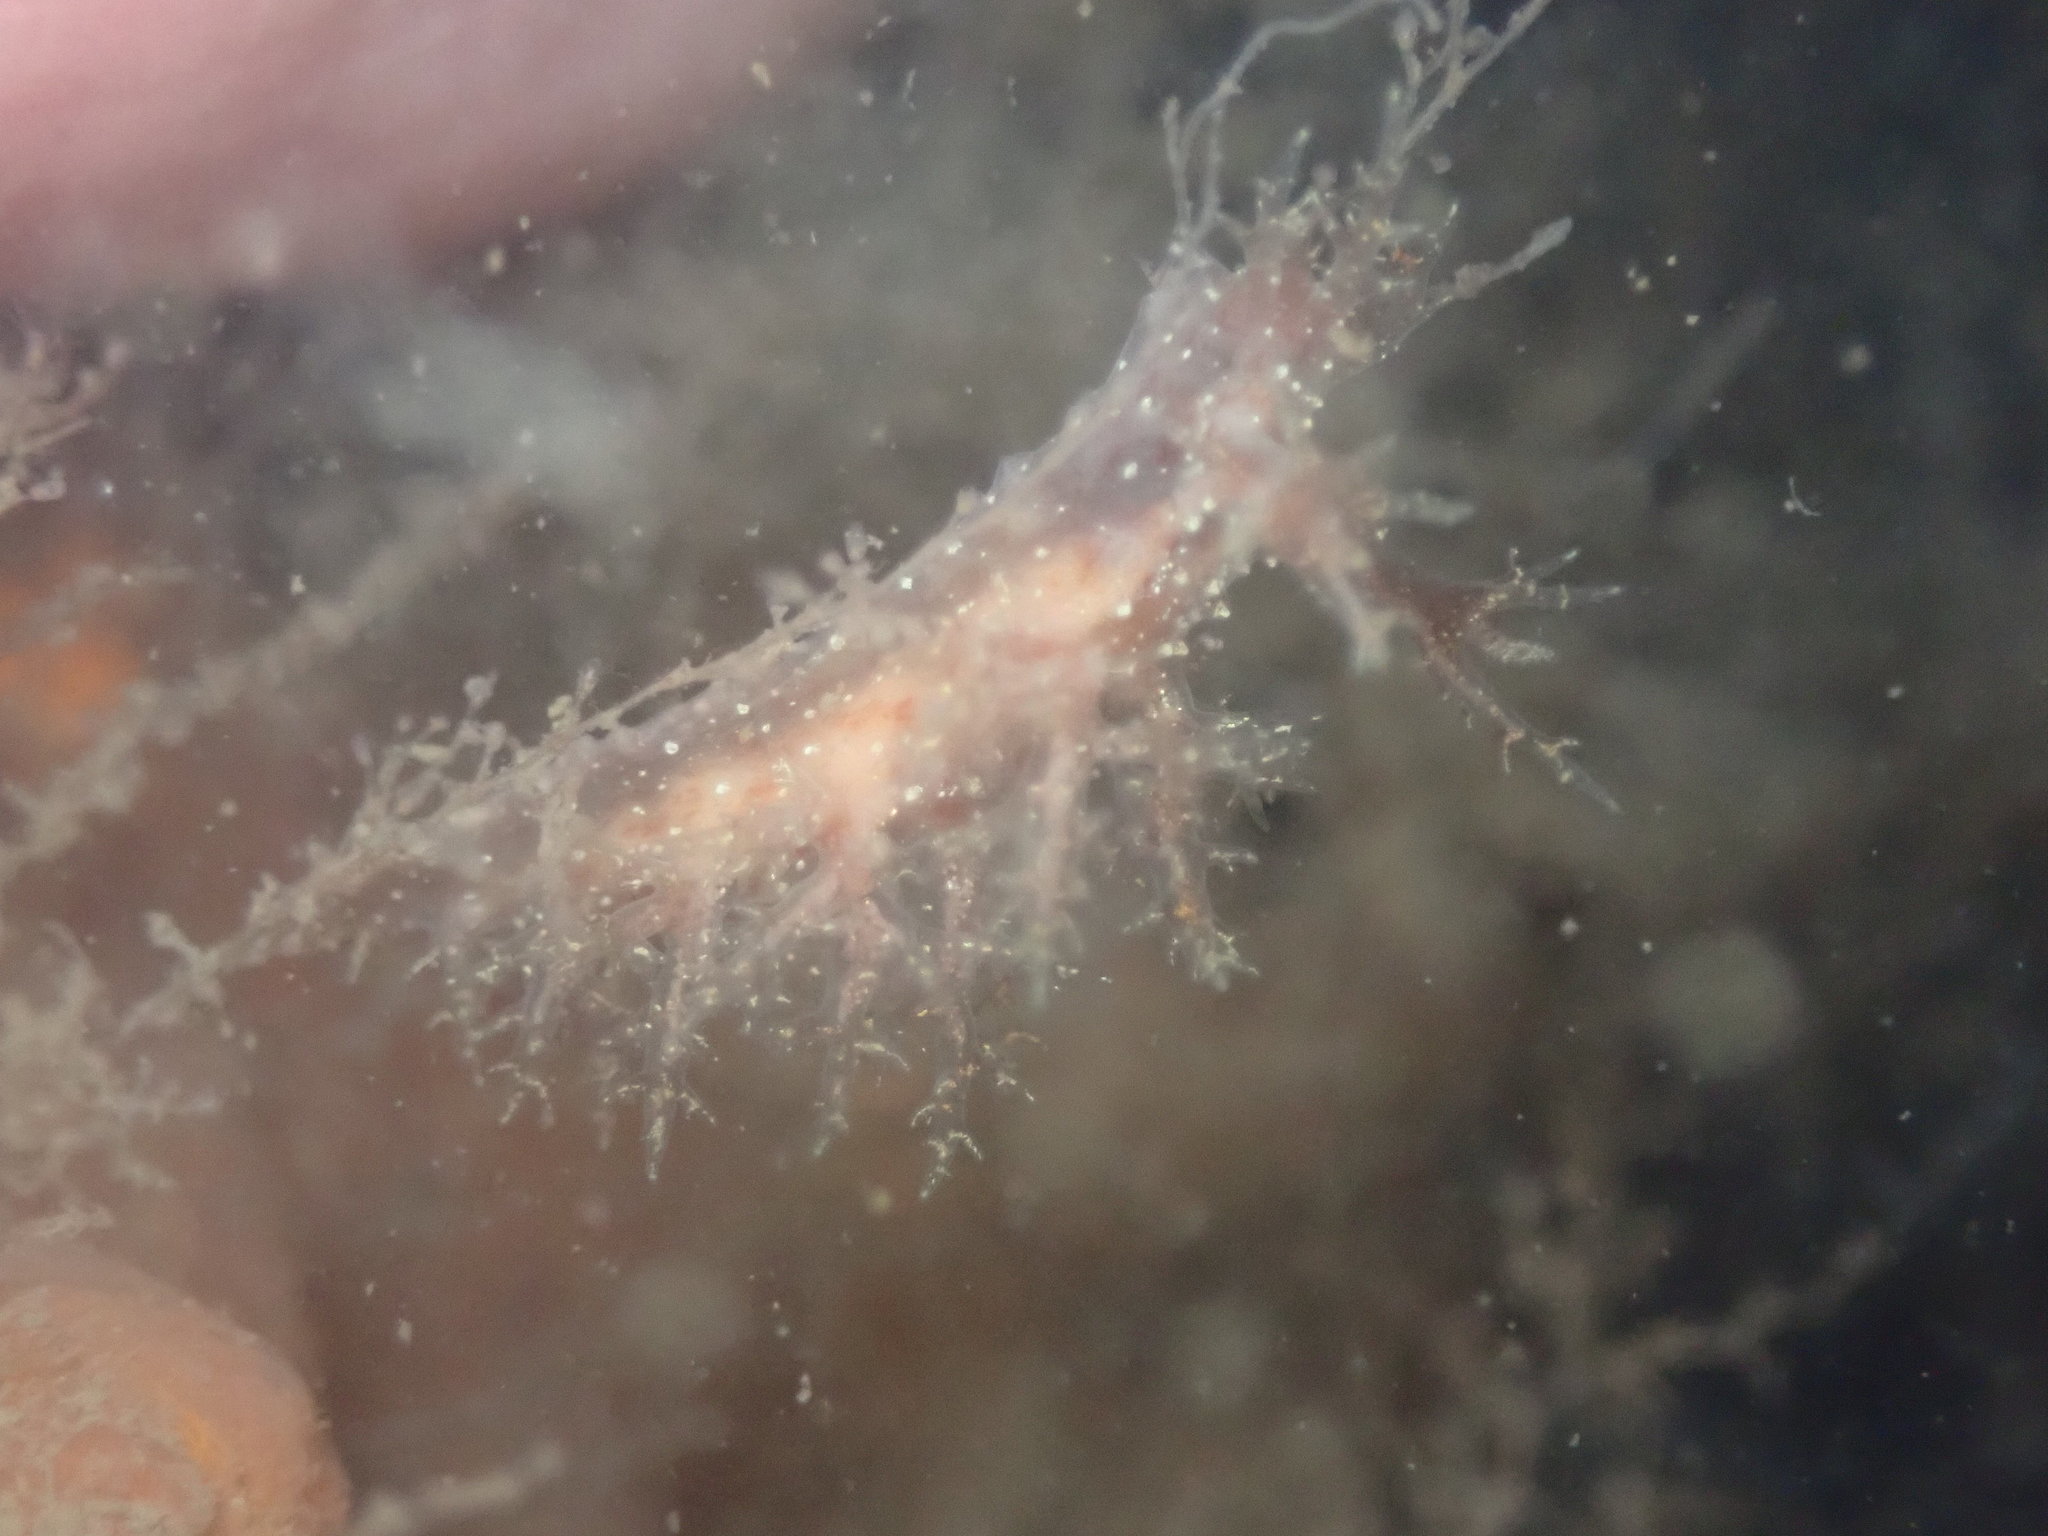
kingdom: Animalia
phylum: Mollusca
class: Gastropoda
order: Nudibranchia
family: Dendronotidae
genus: Dendronotus
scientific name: Dendronotus venustus
